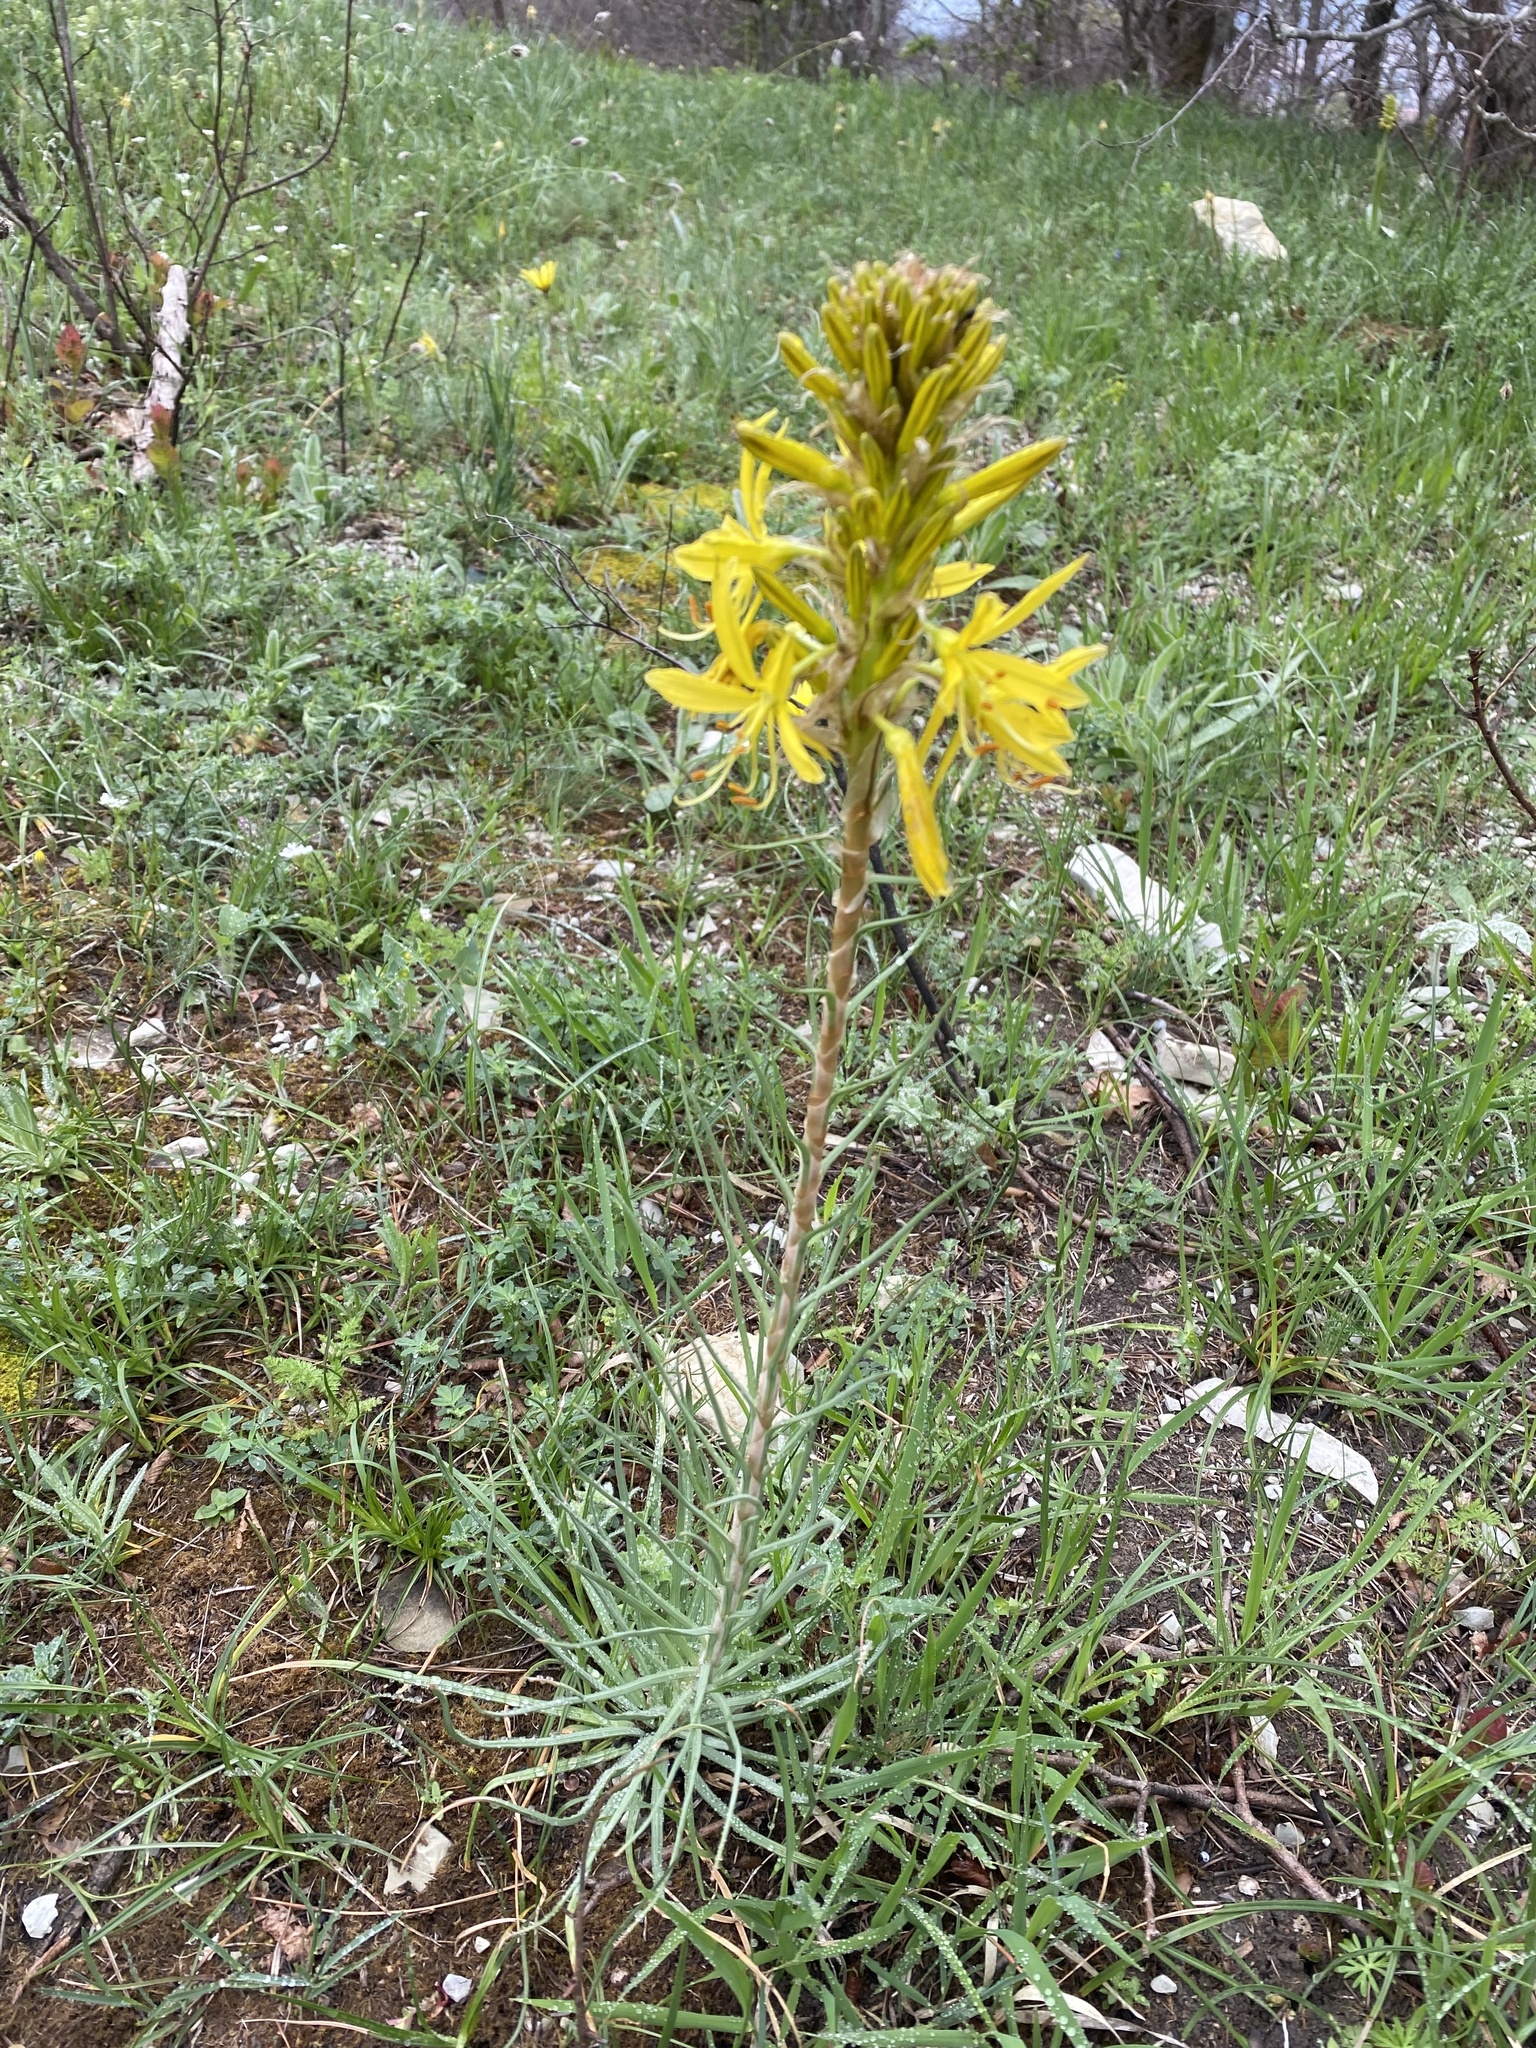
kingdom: Plantae
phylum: Tracheophyta
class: Liliopsida
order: Asparagales
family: Asphodelaceae
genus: Asphodeline
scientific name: Asphodeline lutea
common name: Yellow asphodel
